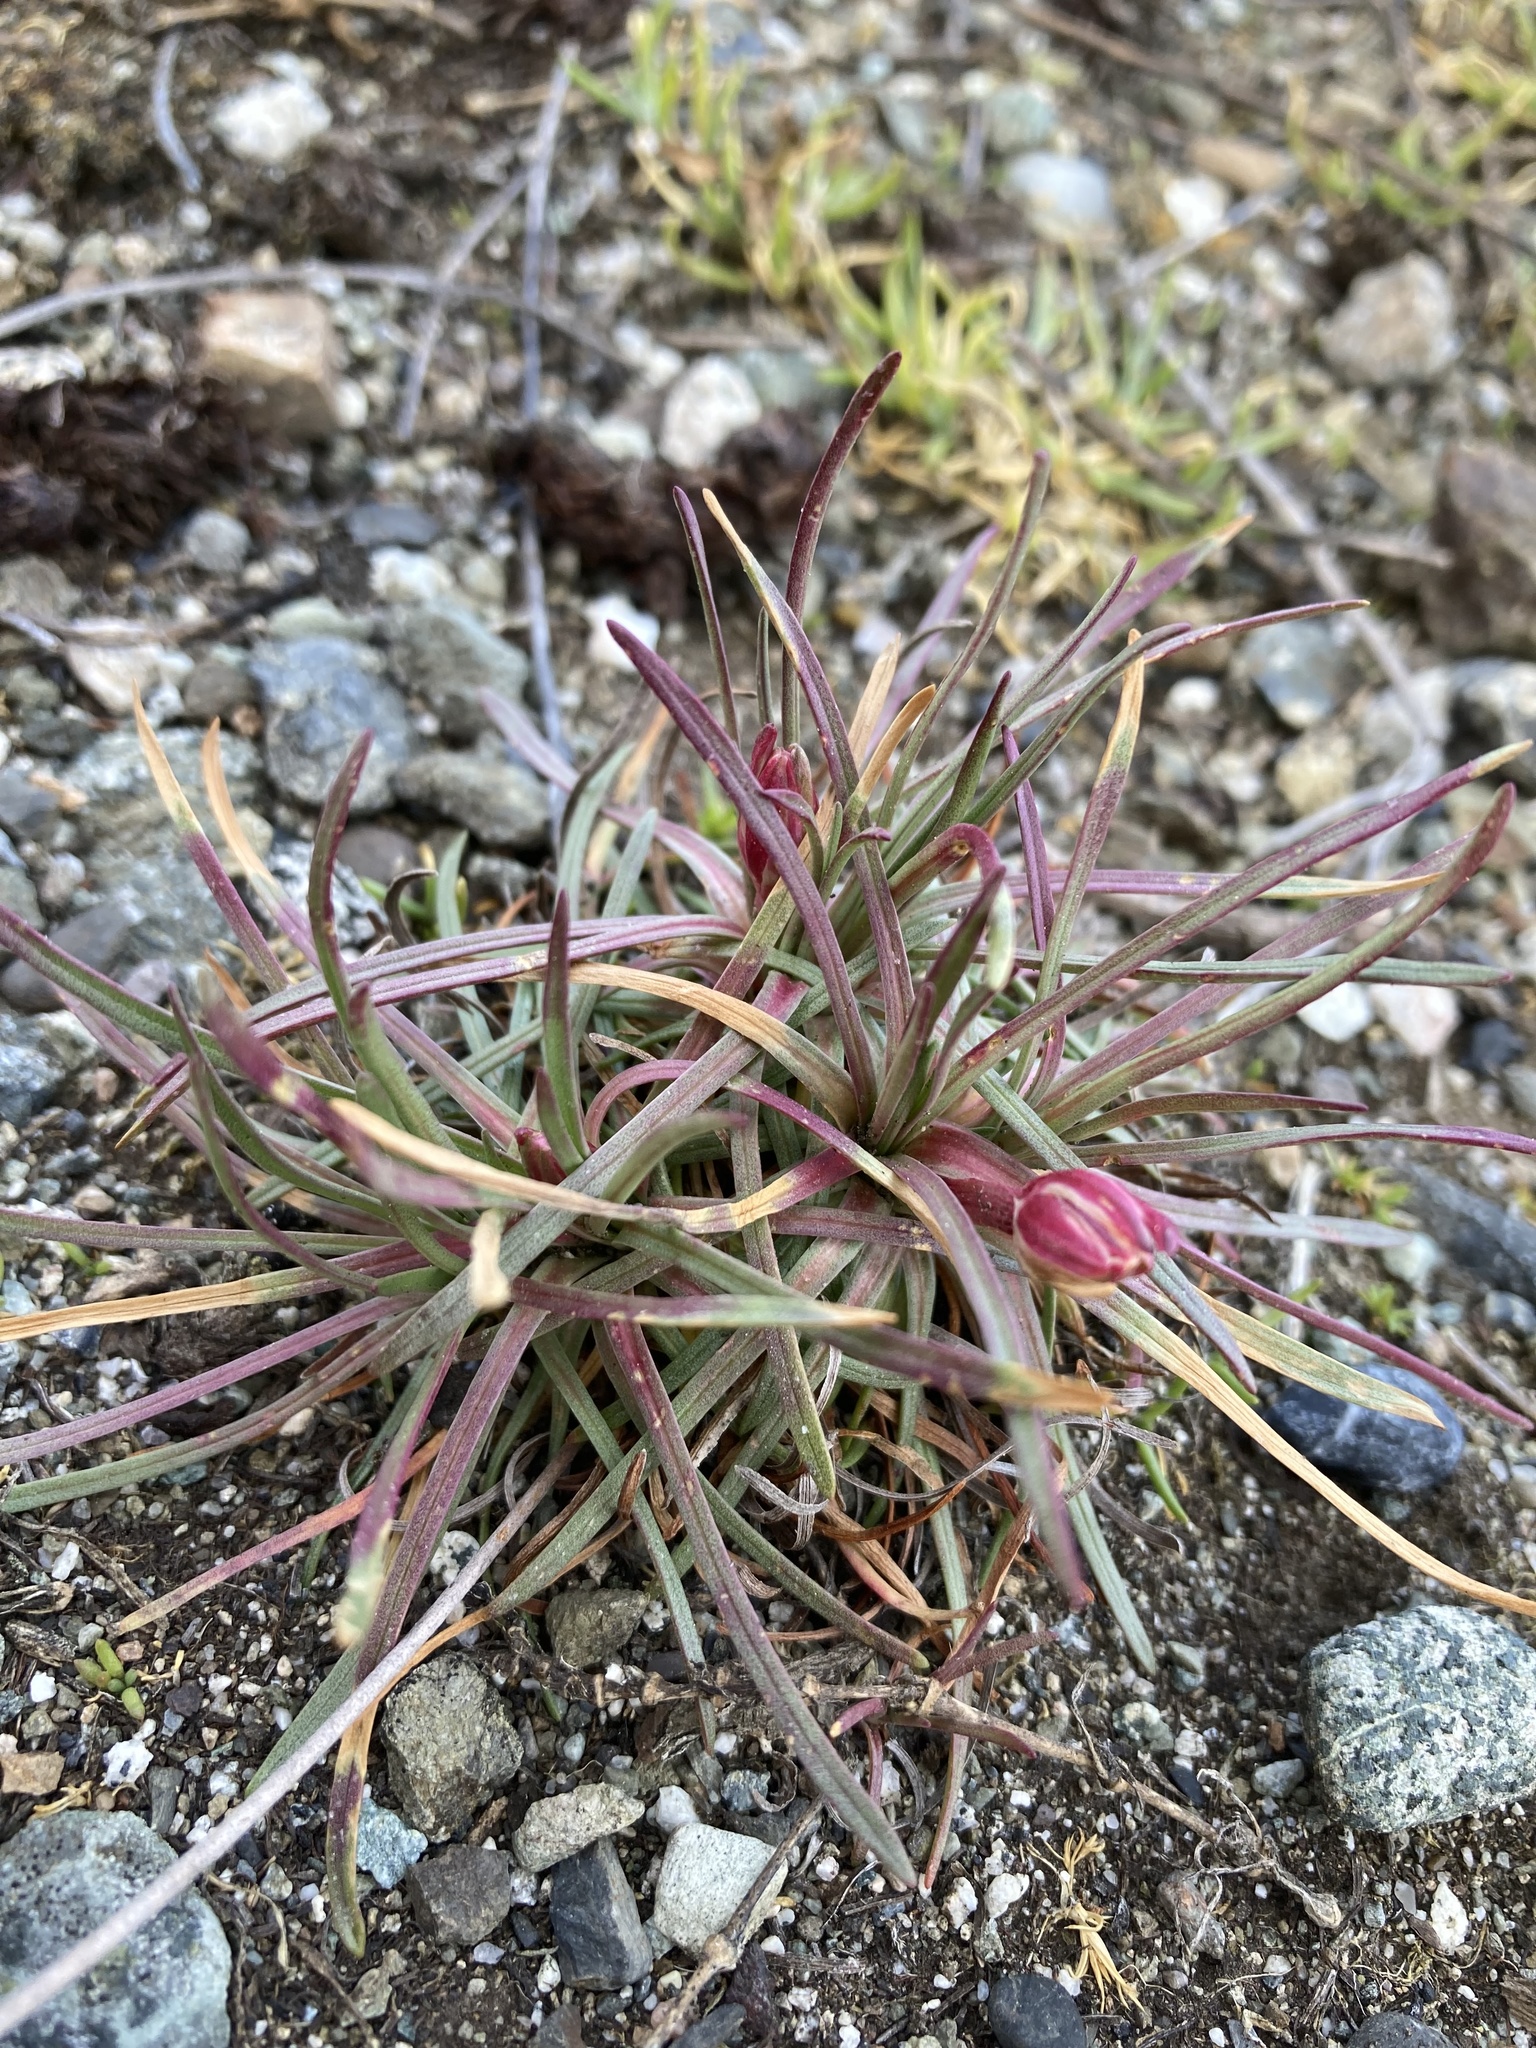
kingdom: Plantae
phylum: Tracheophyta
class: Magnoliopsida
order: Caryophyllales
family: Plumbaginaceae
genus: Armeria
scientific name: Armeria maritima
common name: Thrift
